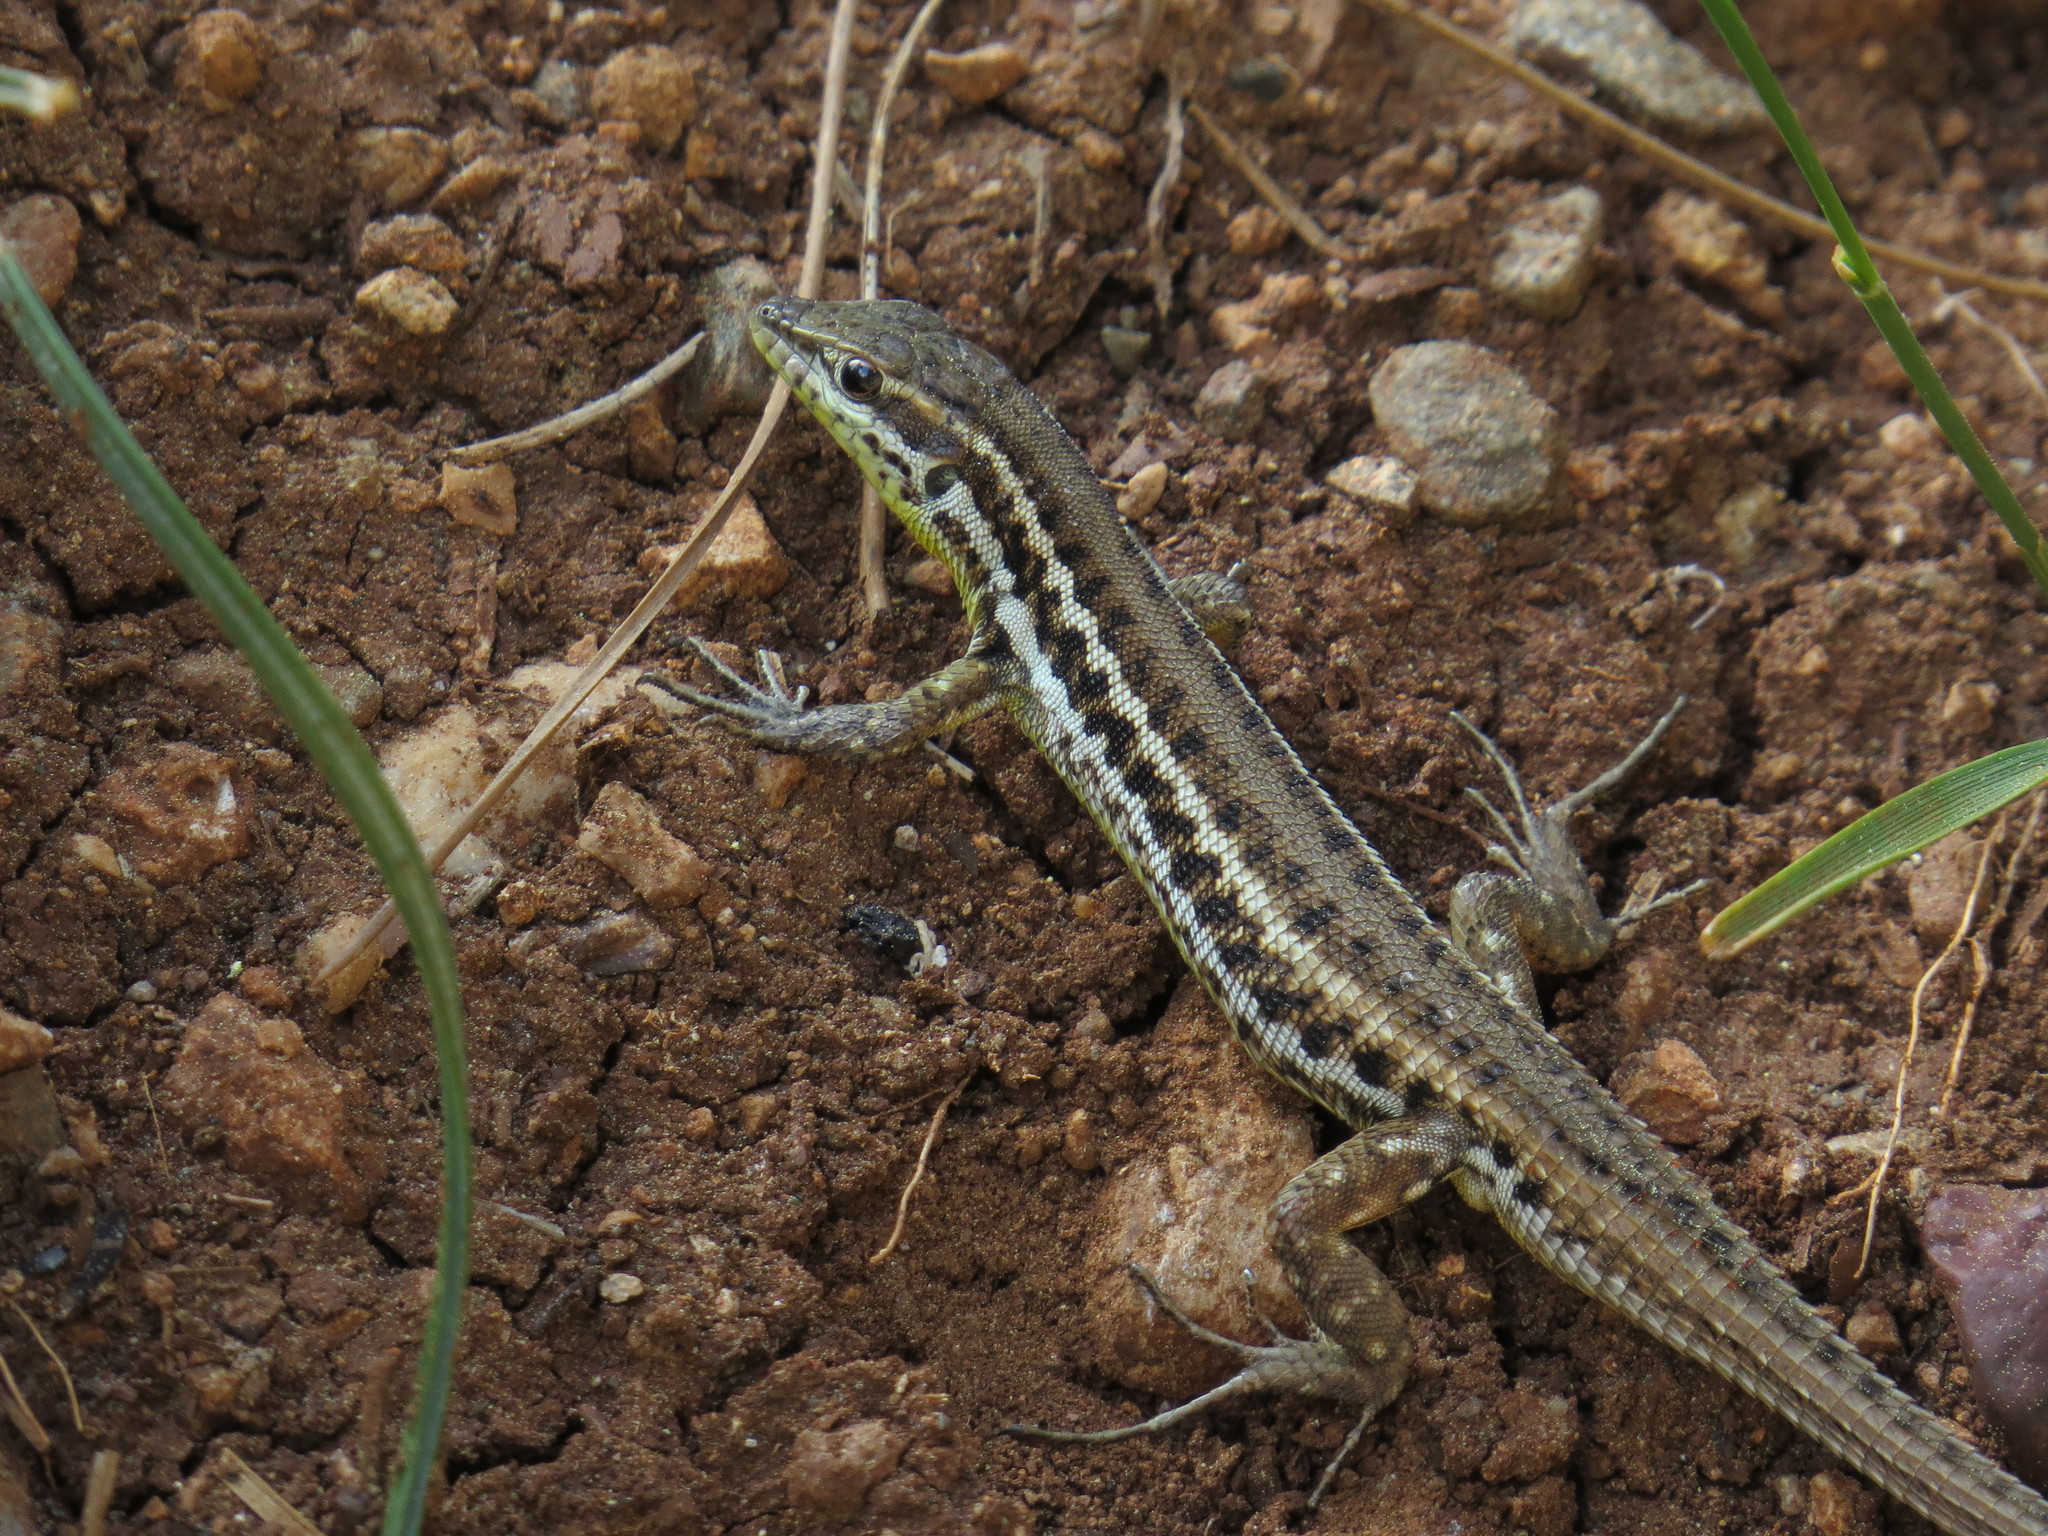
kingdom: Animalia
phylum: Chordata
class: Squamata
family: Lacertidae
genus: Ophisops
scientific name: Ophisops elegans
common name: Snake-eyed lizard
